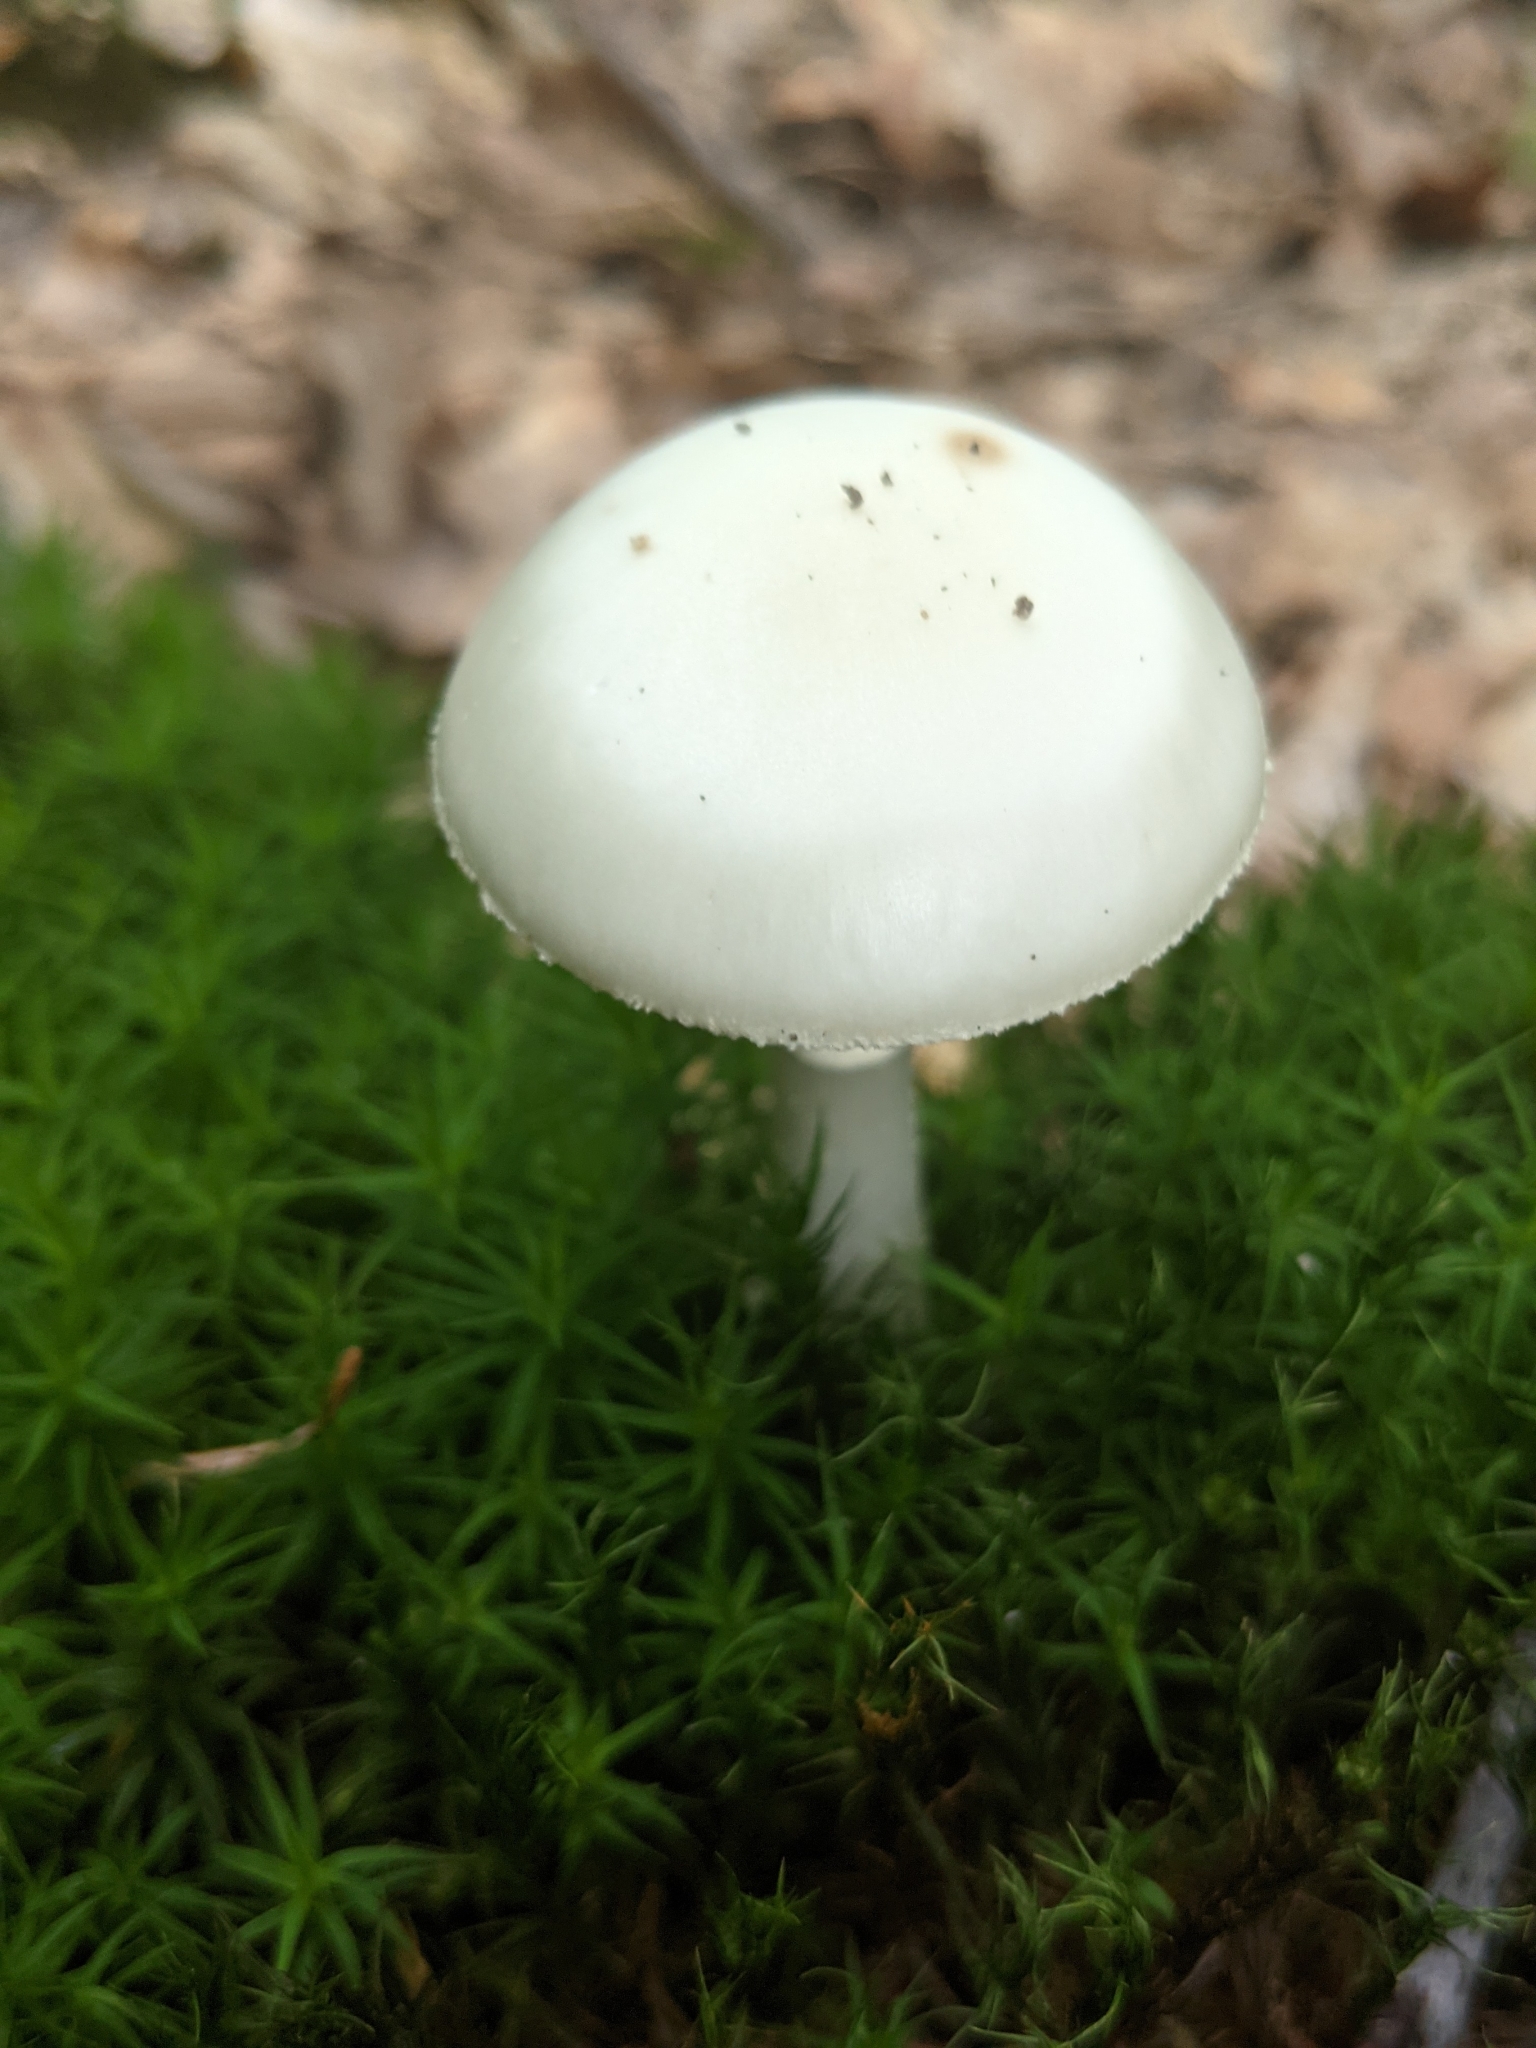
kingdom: Fungi
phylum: Basidiomycota
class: Agaricomycetes
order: Agaricales
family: Amanitaceae
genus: Amanita
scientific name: Amanita citrina
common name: False death-cap
